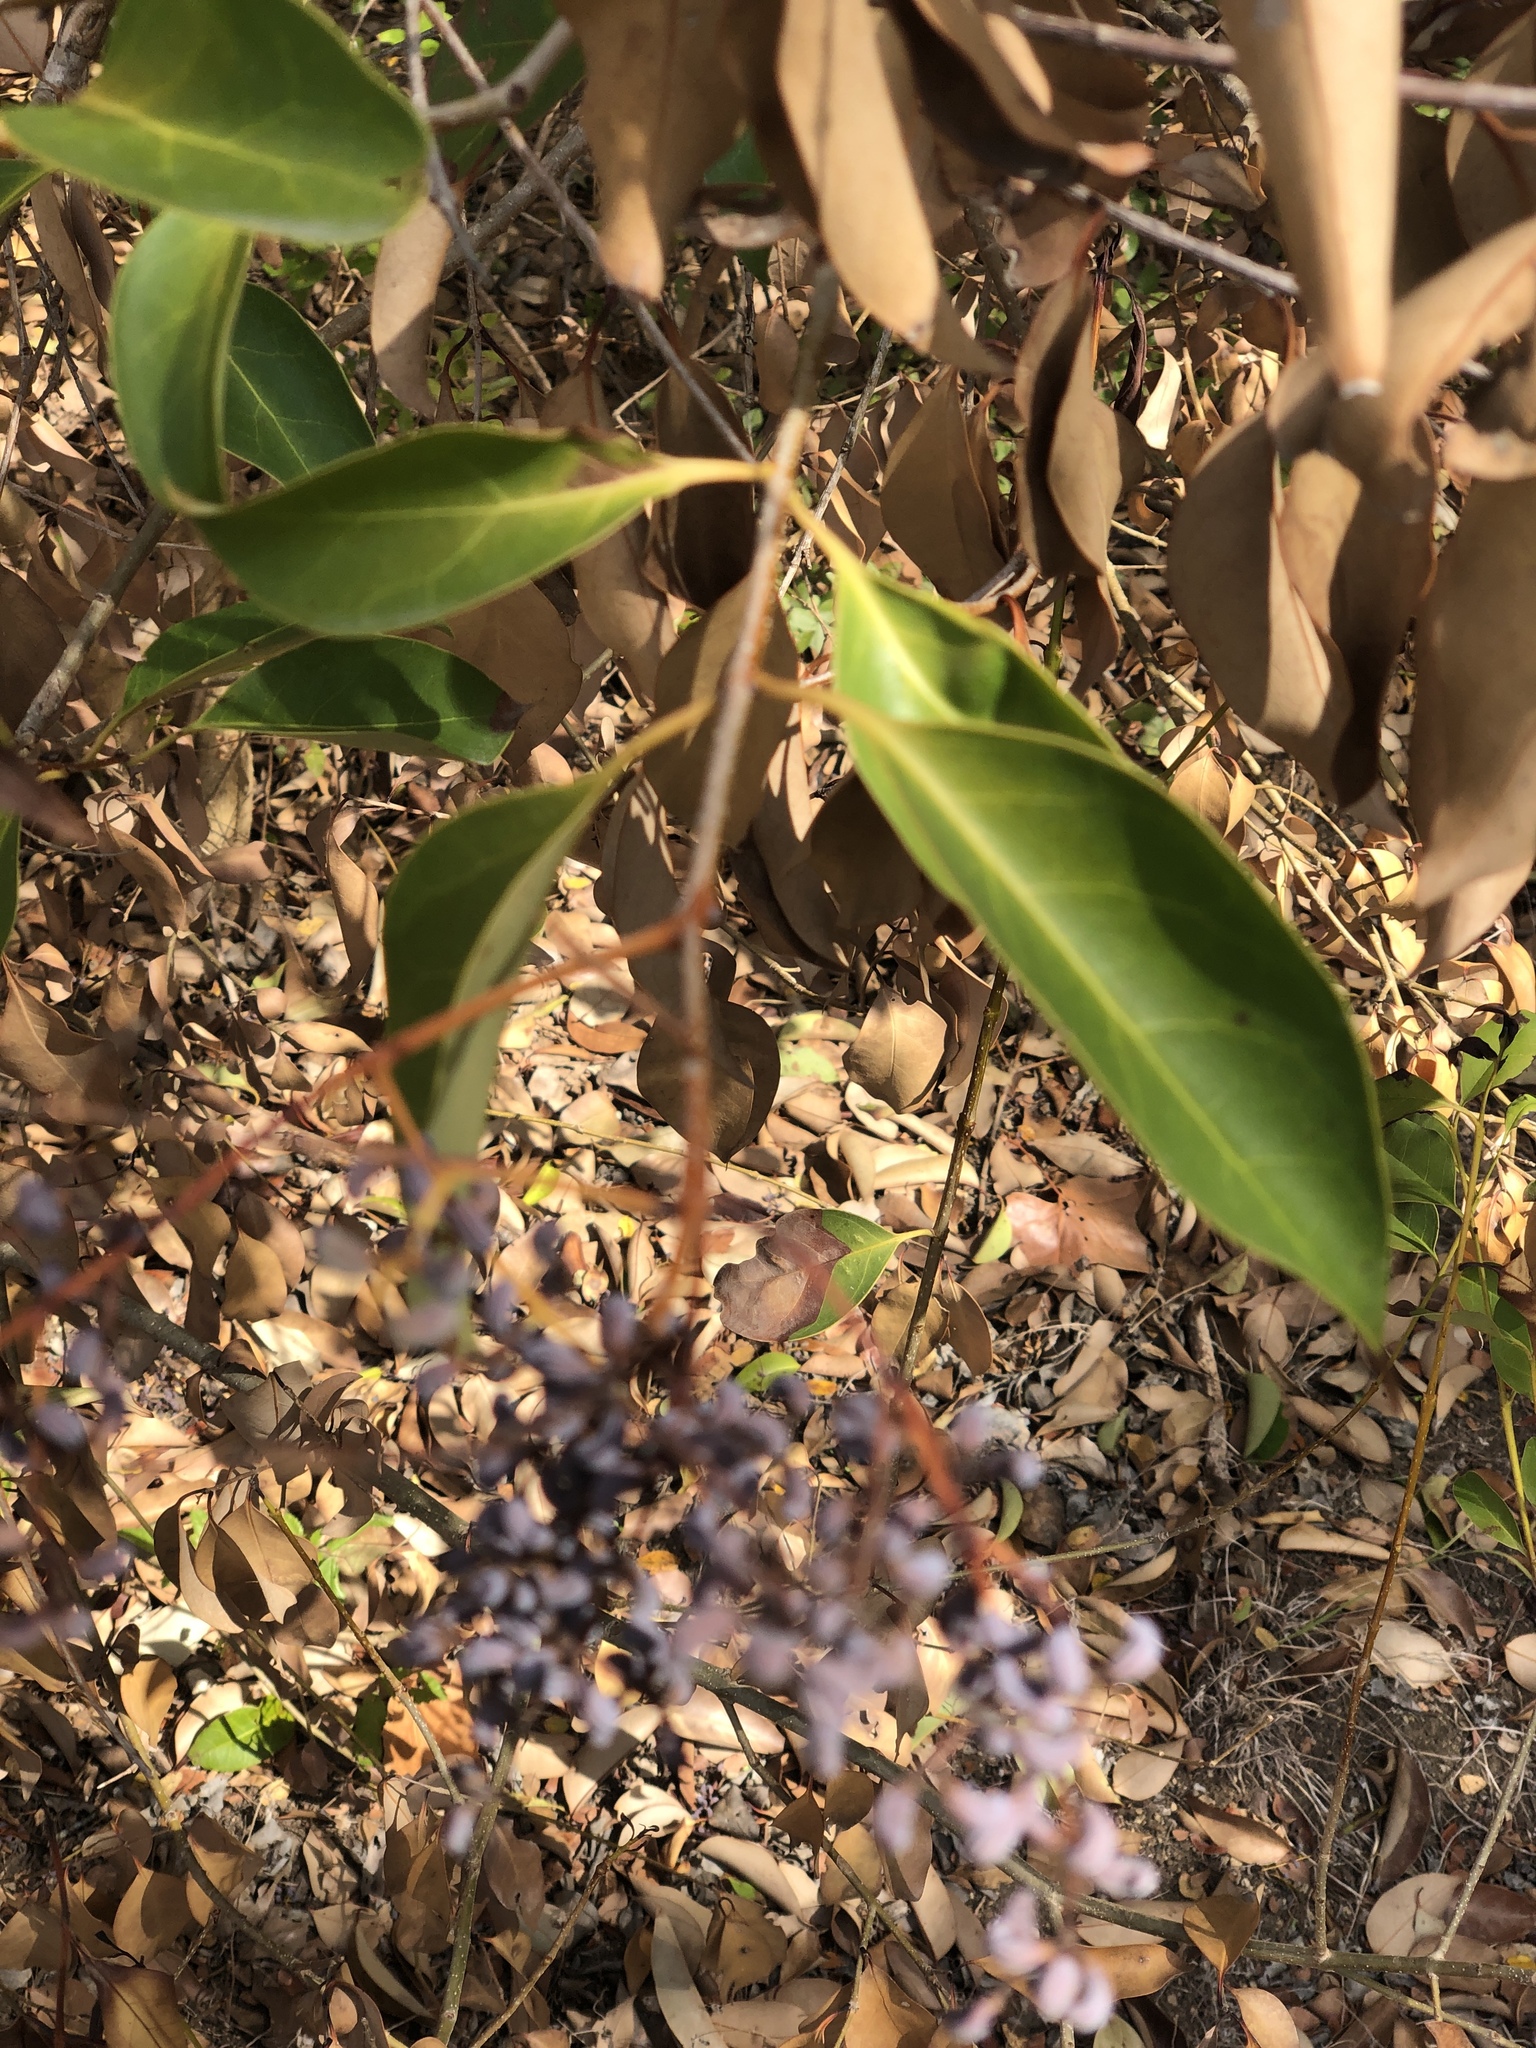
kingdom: Plantae
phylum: Tracheophyta
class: Magnoliopsida
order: Lamiales
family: Oleaceae
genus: Ligustrum
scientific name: Ligustrum lucidum
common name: Glossy privet
